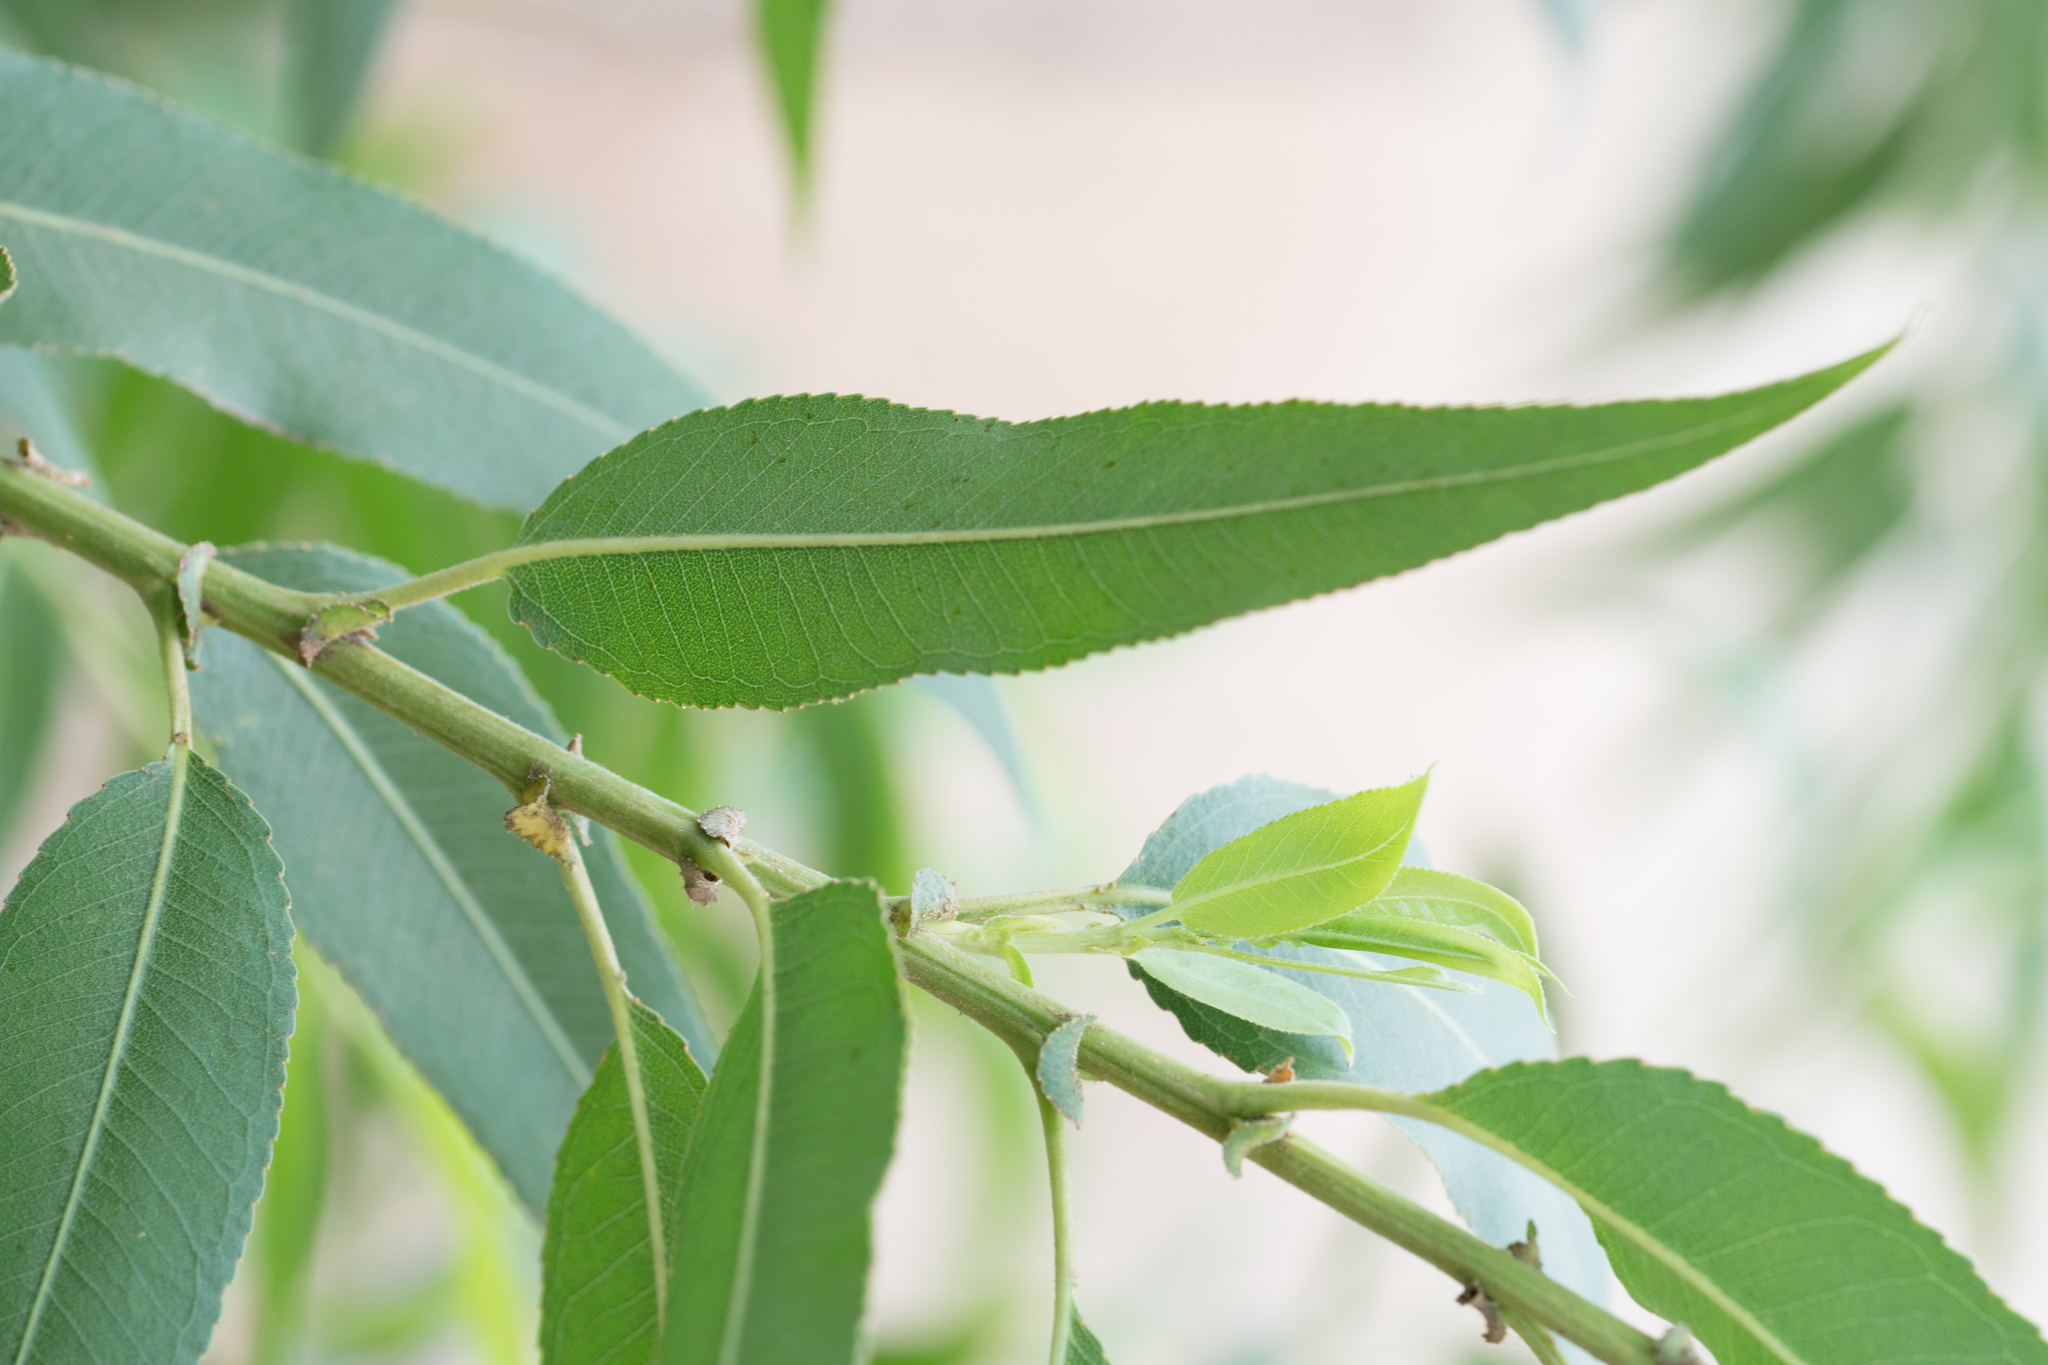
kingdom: Plantae
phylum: Tracheophyta
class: Magnoliopsida
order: Malpighiales
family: Salicaceae
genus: Salix
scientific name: Salix gooddingii
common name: Goodding's willow
